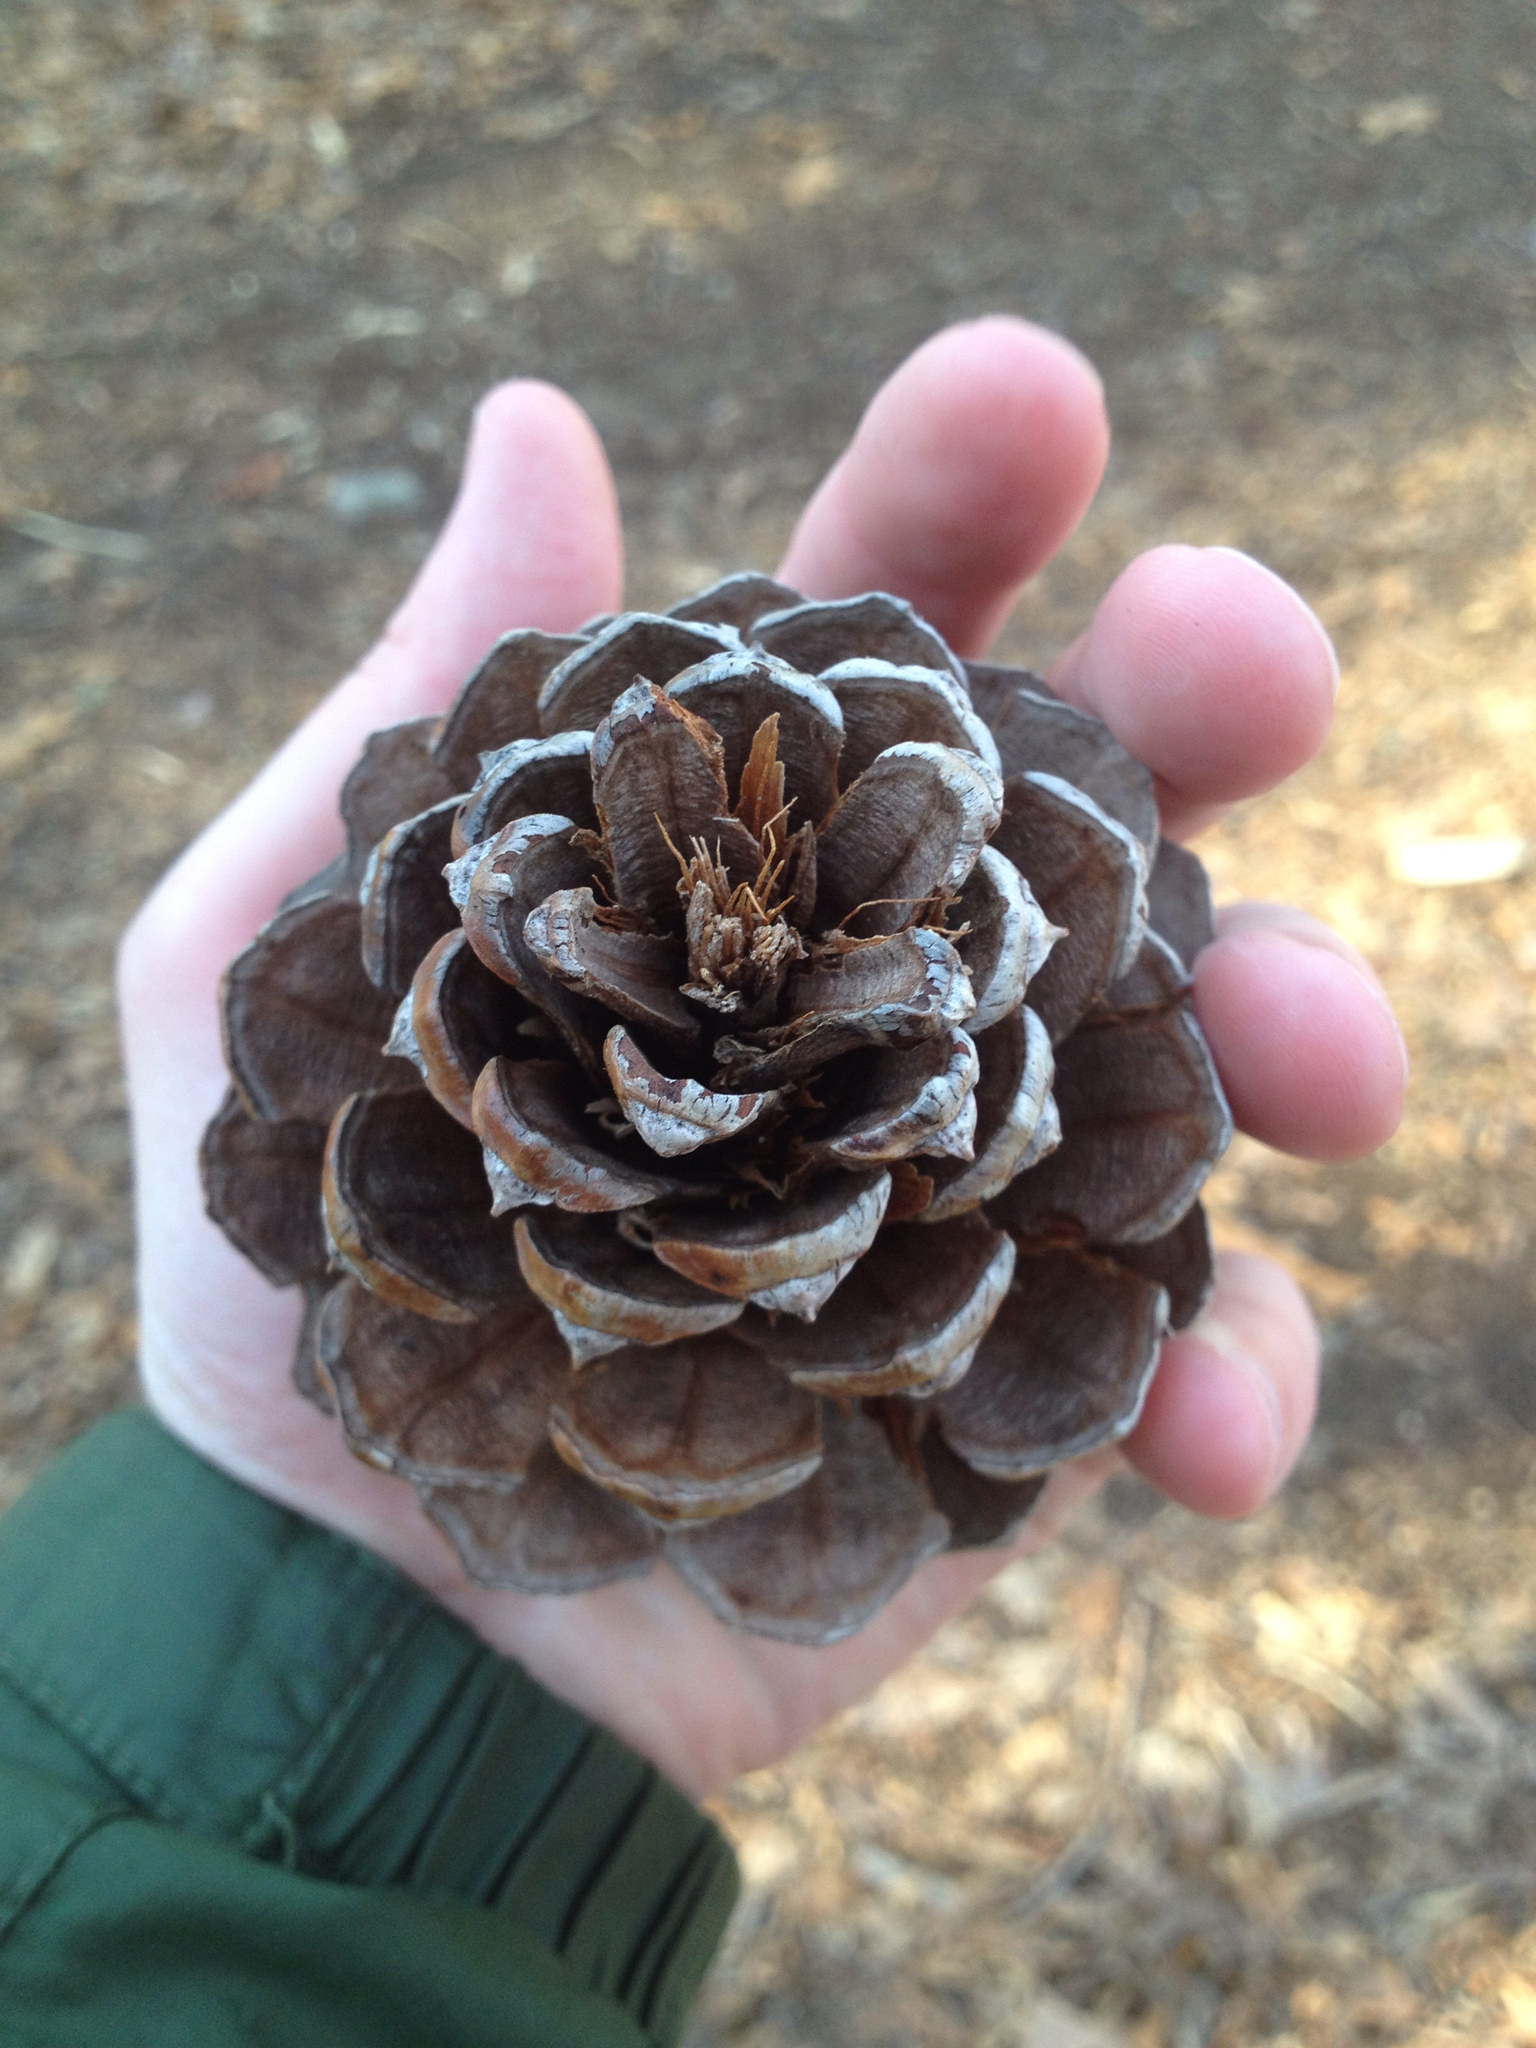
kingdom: Plantae
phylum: Tracheophyta
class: Pinopsida
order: Pinales
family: Pinaceae
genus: Pinus
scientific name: Pinus rigida
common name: Pitch pine
